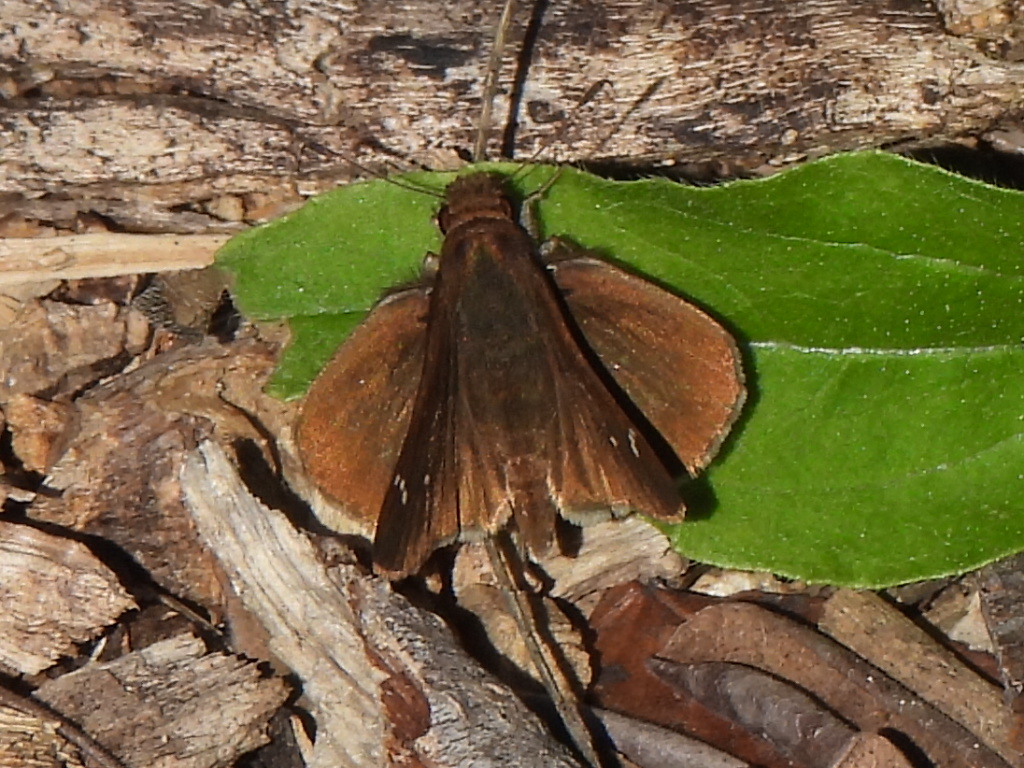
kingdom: Animalia
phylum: Arthropoda
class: Insecta
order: Lepidoptera
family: Hesperiidae
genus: Lerema
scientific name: Lerema accius
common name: Clouded skipper
